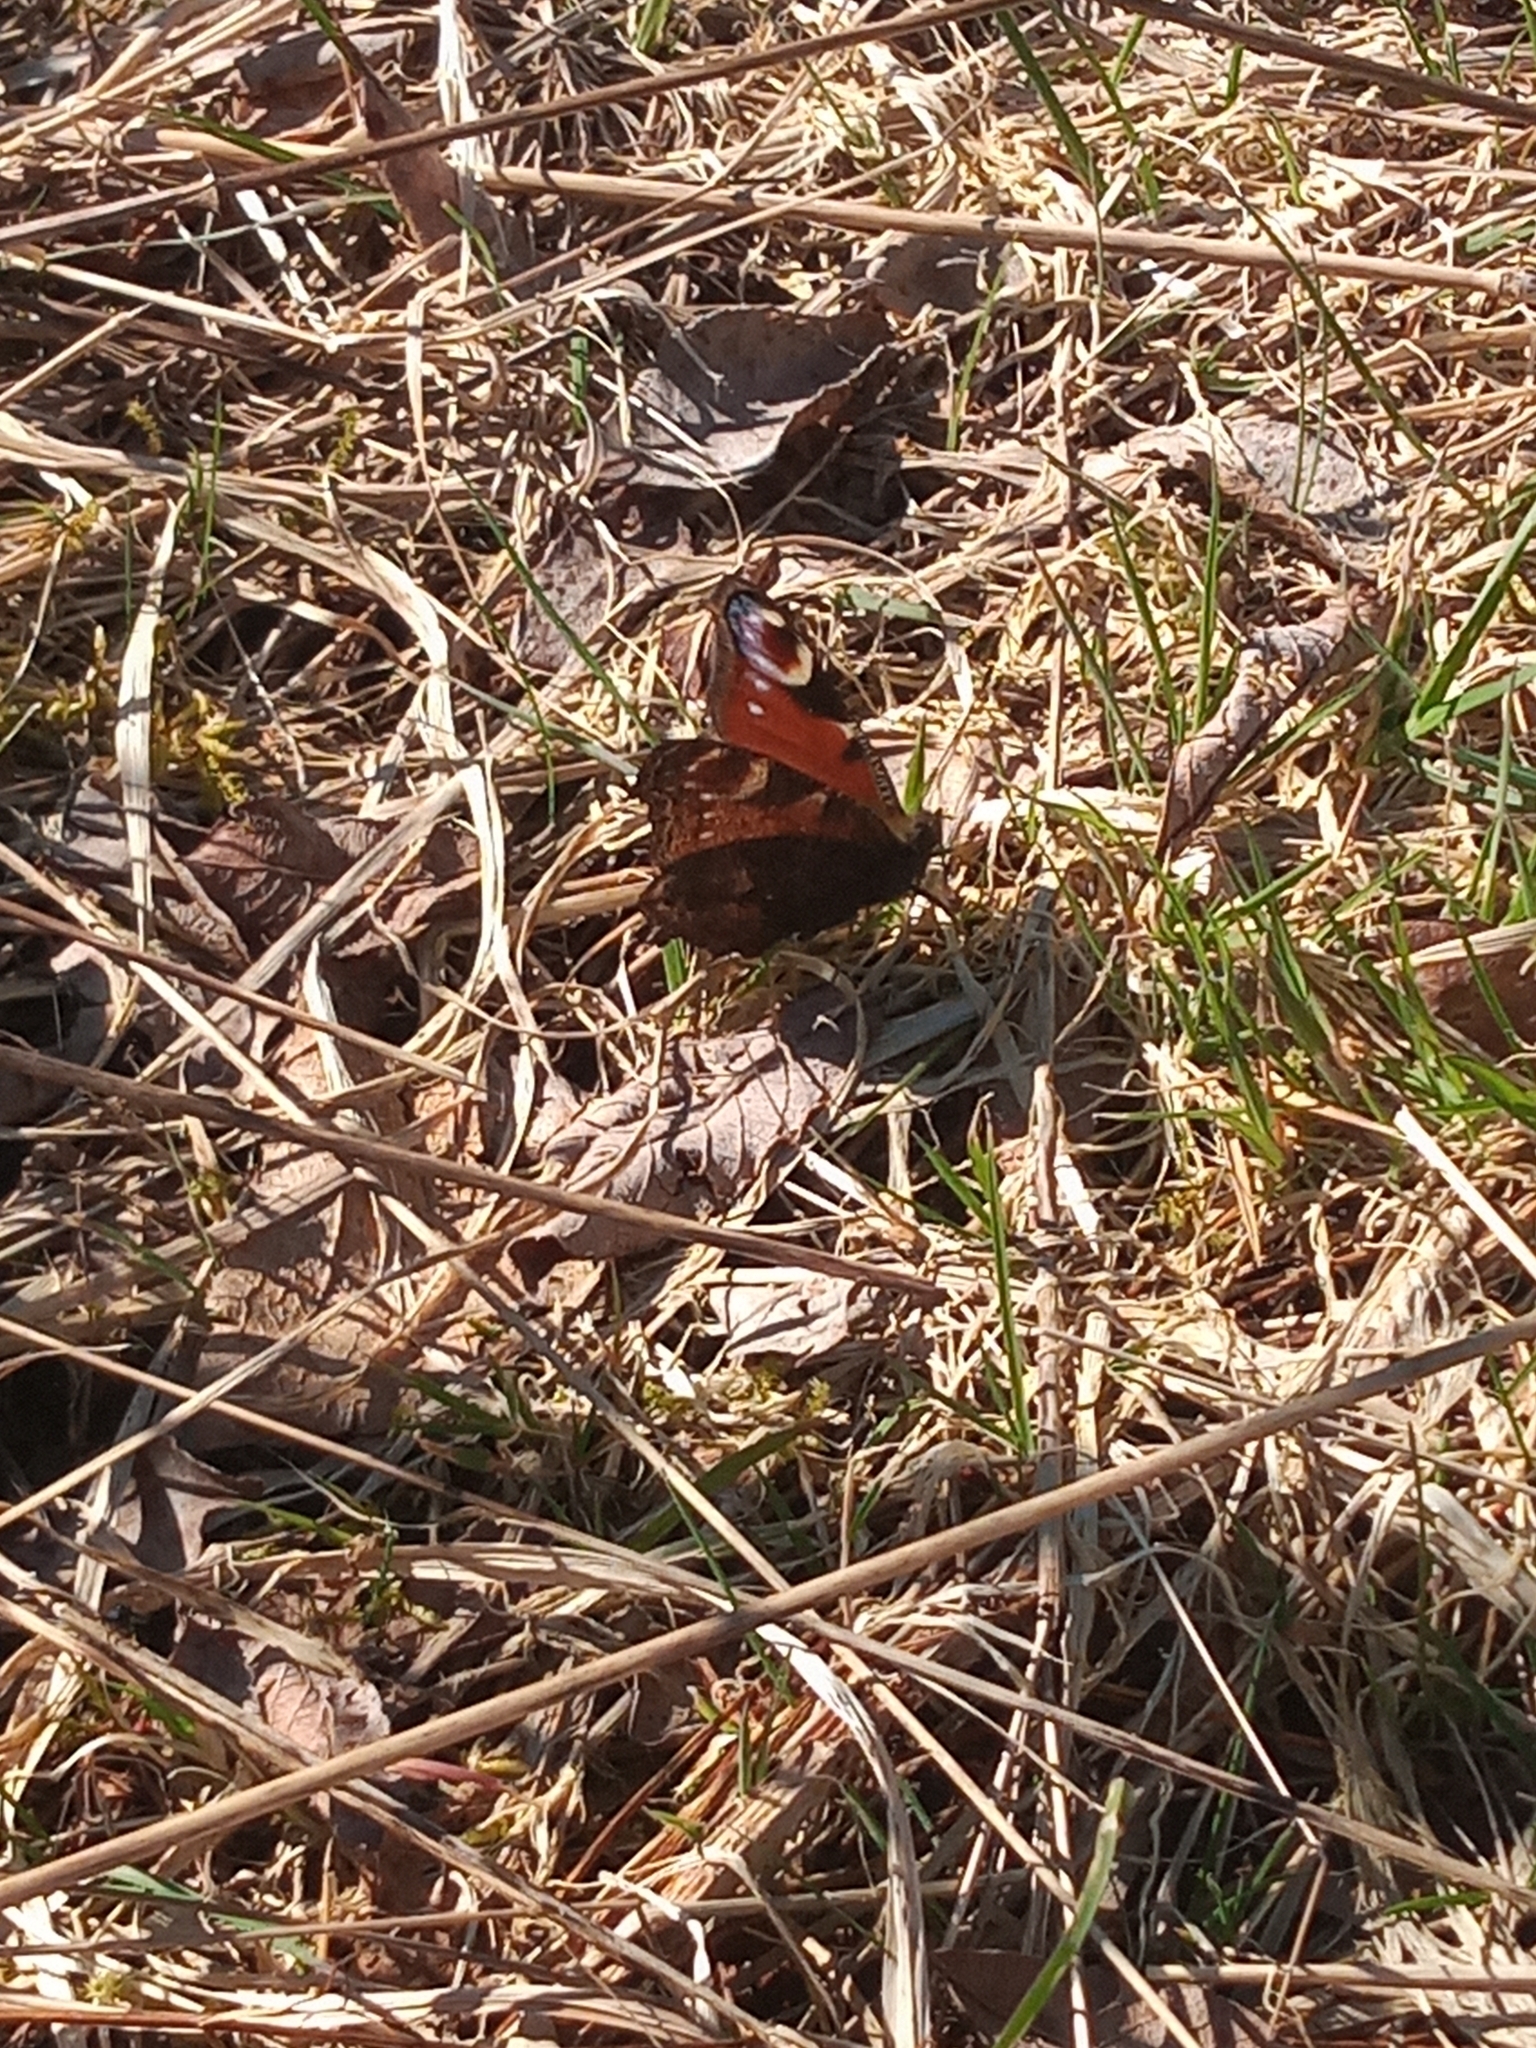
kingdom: Animalia
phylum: Arthropoda
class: Insecta
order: Lepidoptera
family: Nymphalidae
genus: Aglais
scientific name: Aglais io
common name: Peacock
